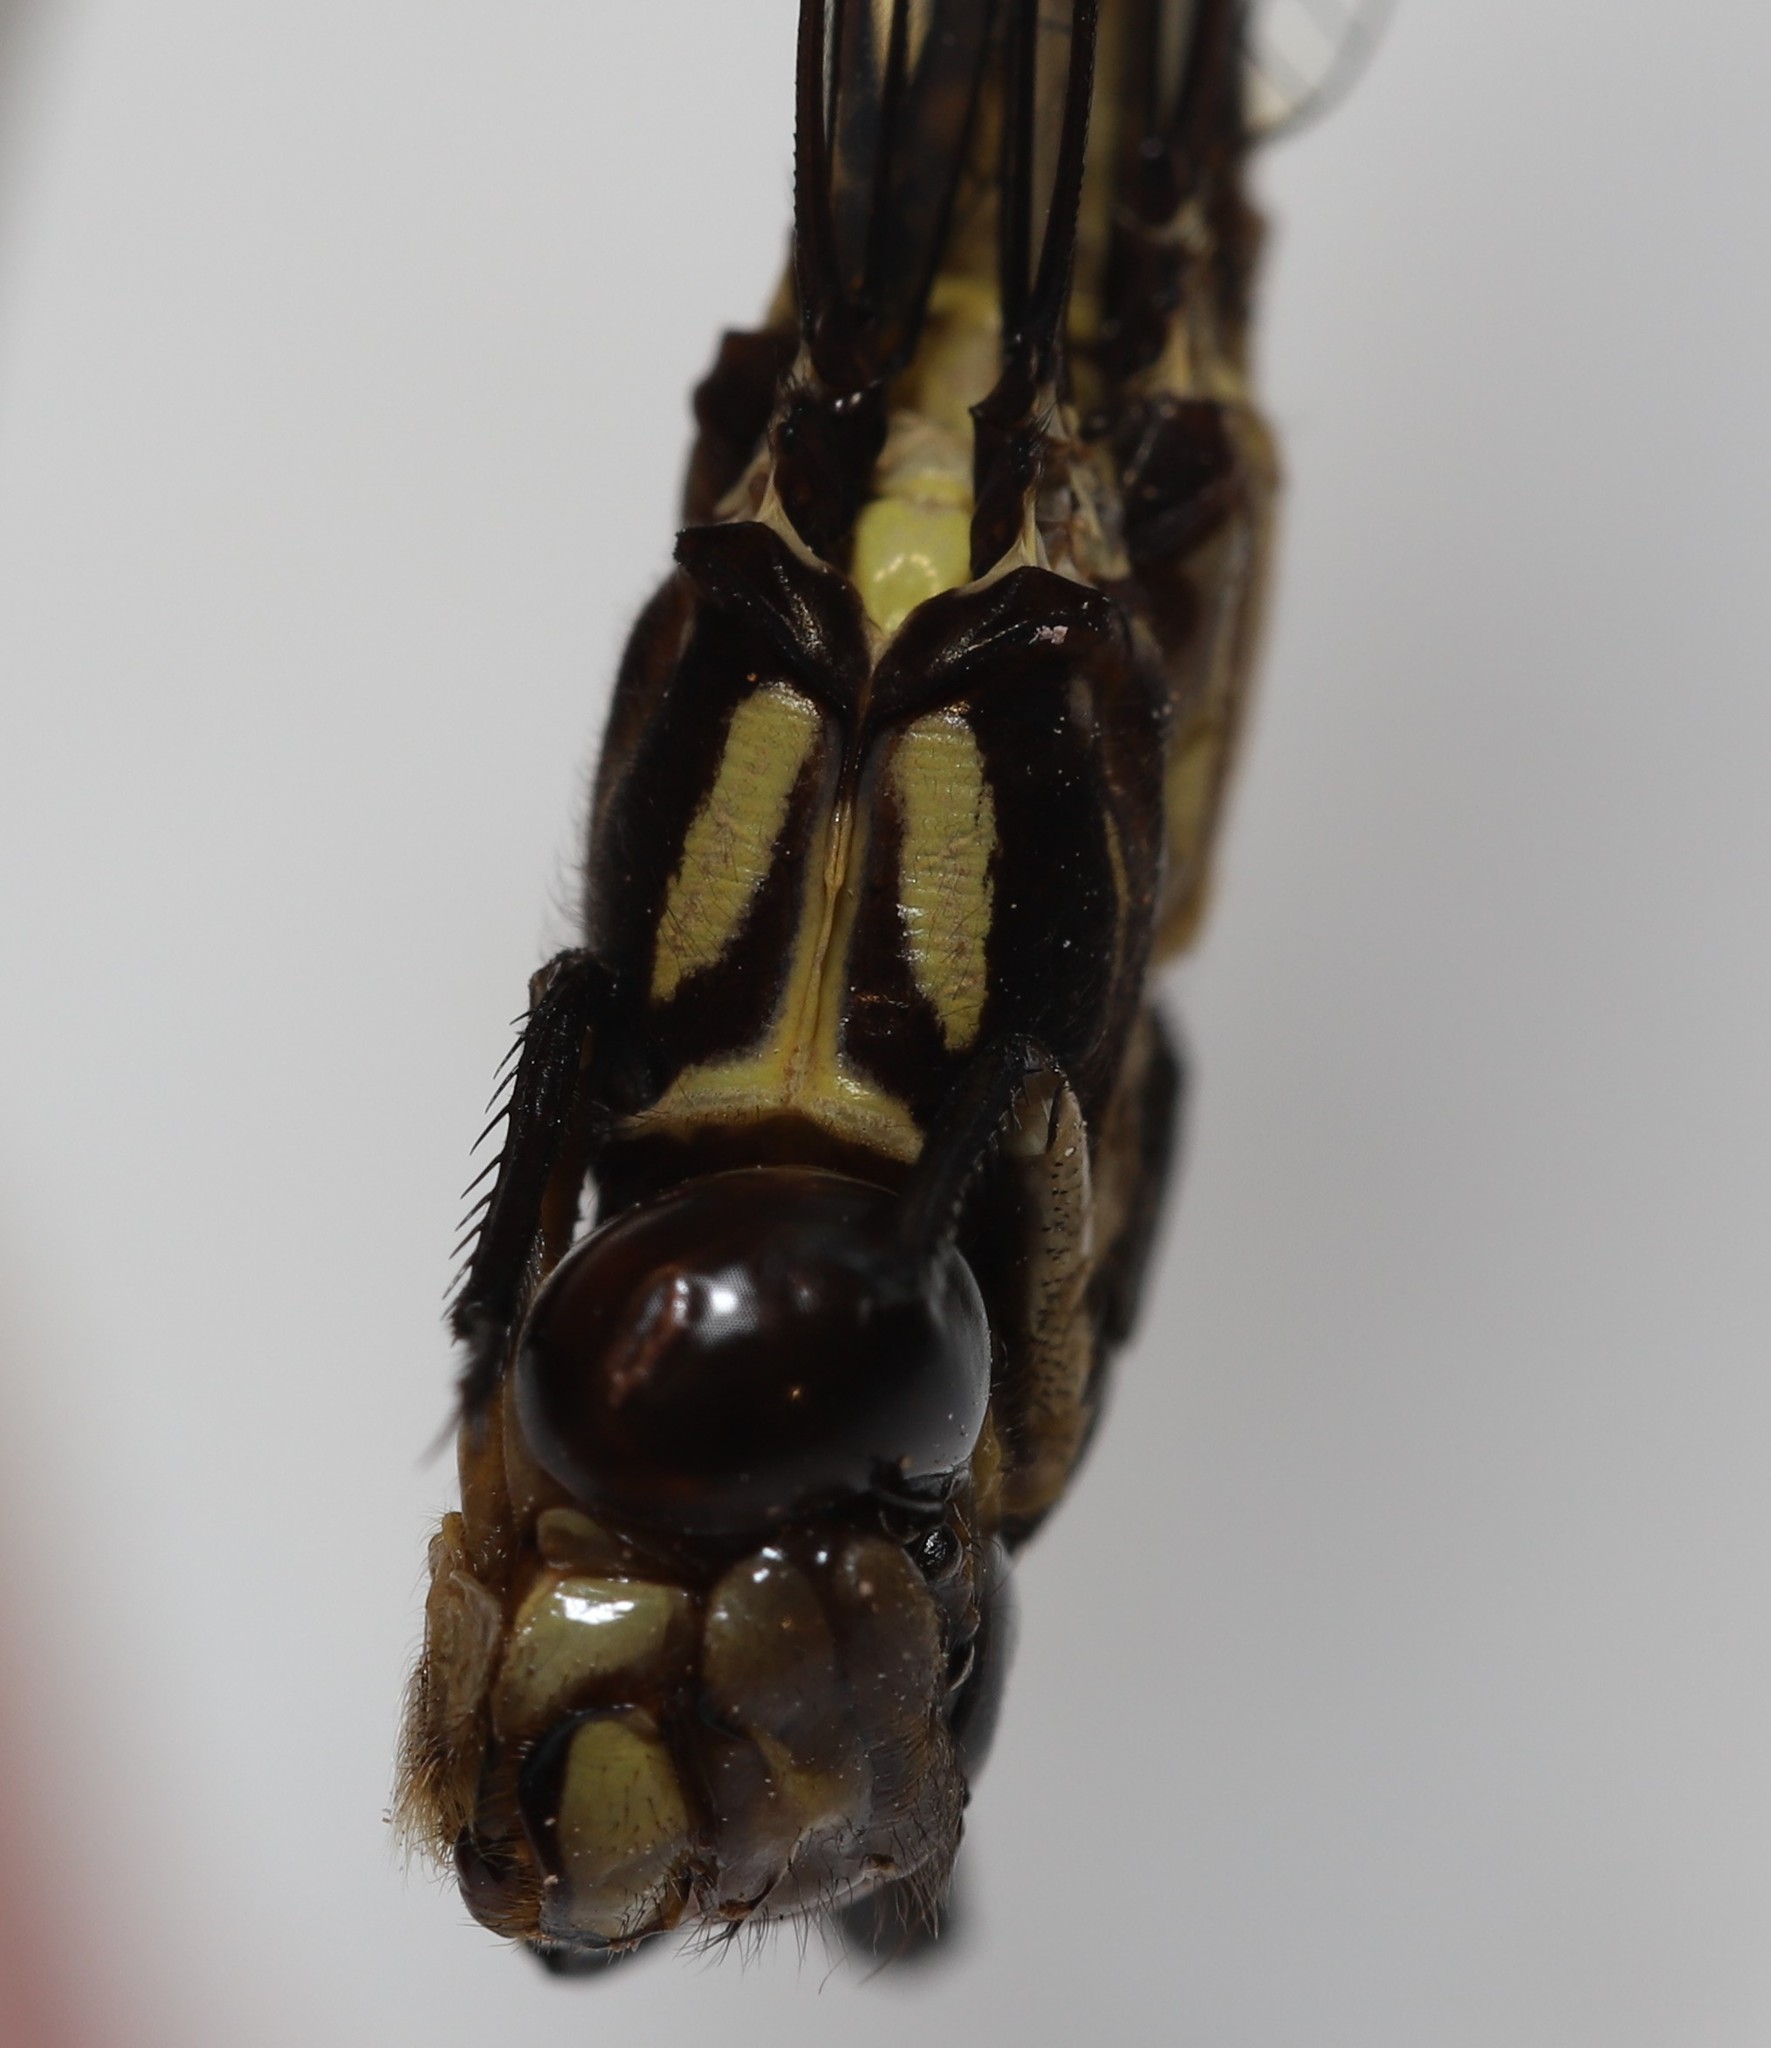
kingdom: Animalia
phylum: Arthropoda
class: Insecta
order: Odonata
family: Gomphidae
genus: Stylurus
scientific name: Stylurus amnicola
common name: Riverine clubtail
